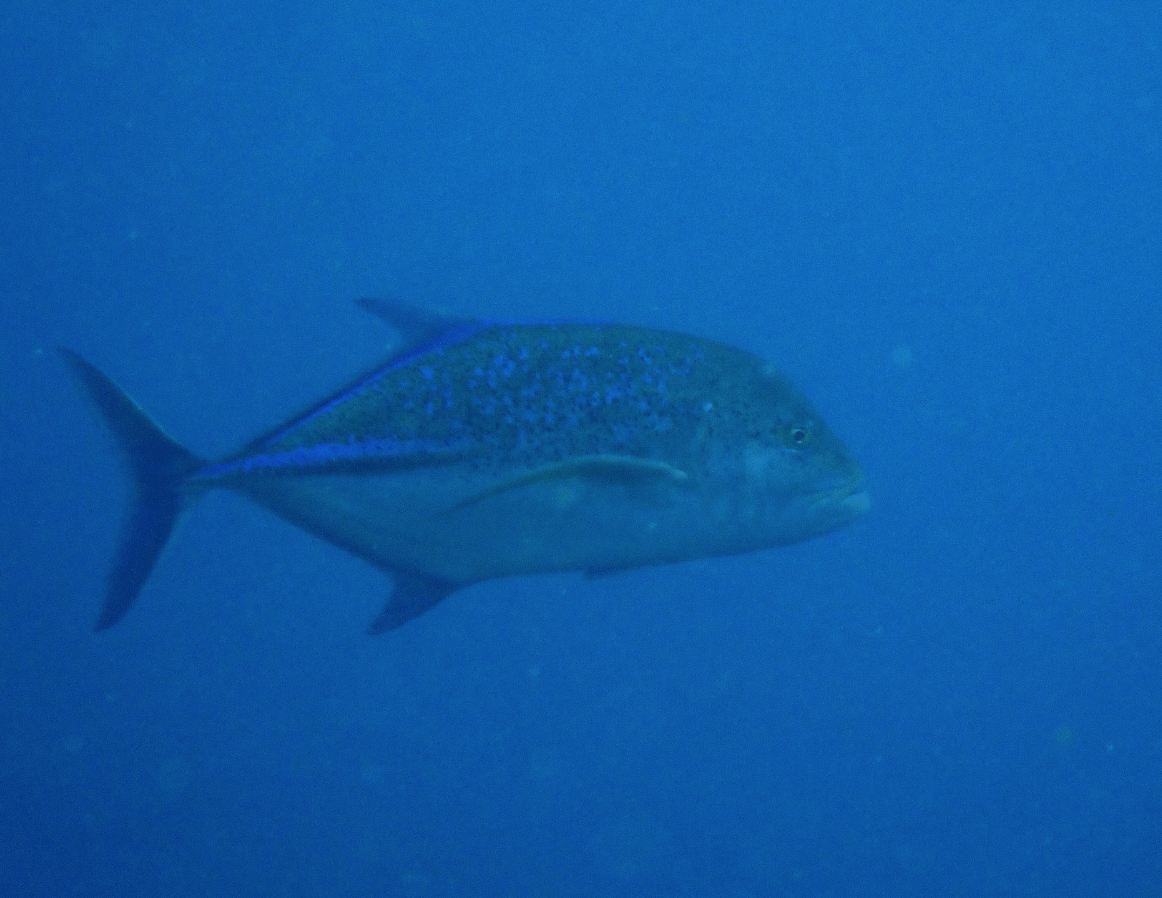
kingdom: Animalia
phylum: Chordata
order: Perciformes
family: Carangidae
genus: Caranx
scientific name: Caranx melampygus
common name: Bluefin trevally
